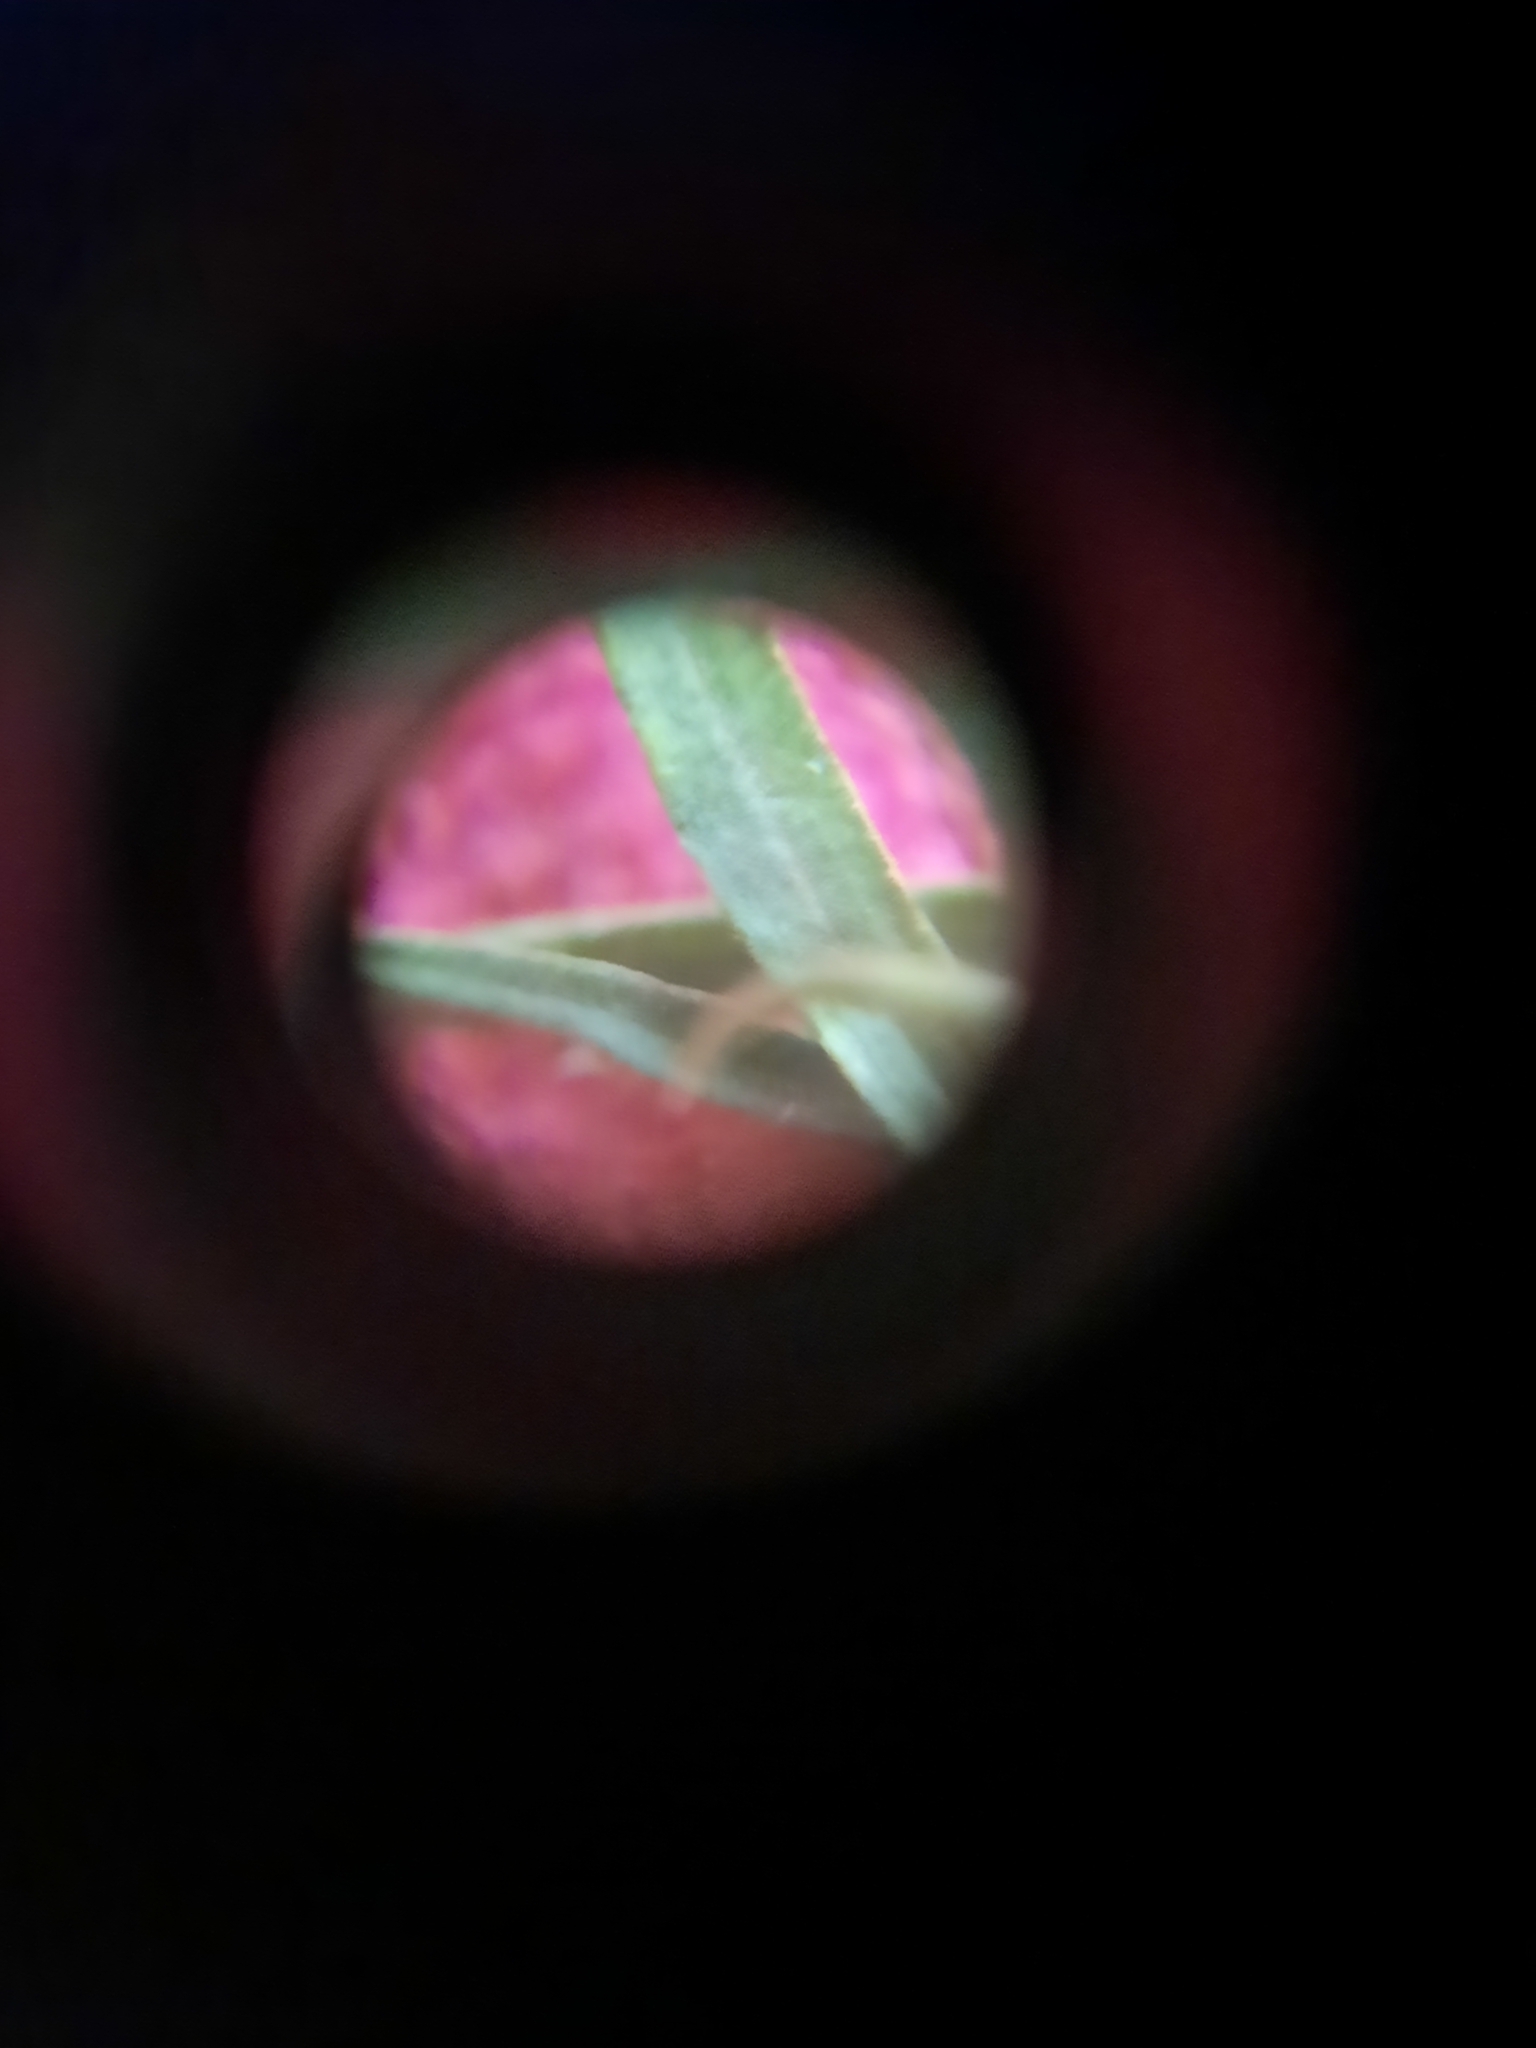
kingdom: Plantae
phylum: Tracheophyta
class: Magnoliopsida
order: Asterales
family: Asteraceae
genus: Symphyotrichum
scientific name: Symphyotrichum pilosum
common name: Awl aster
